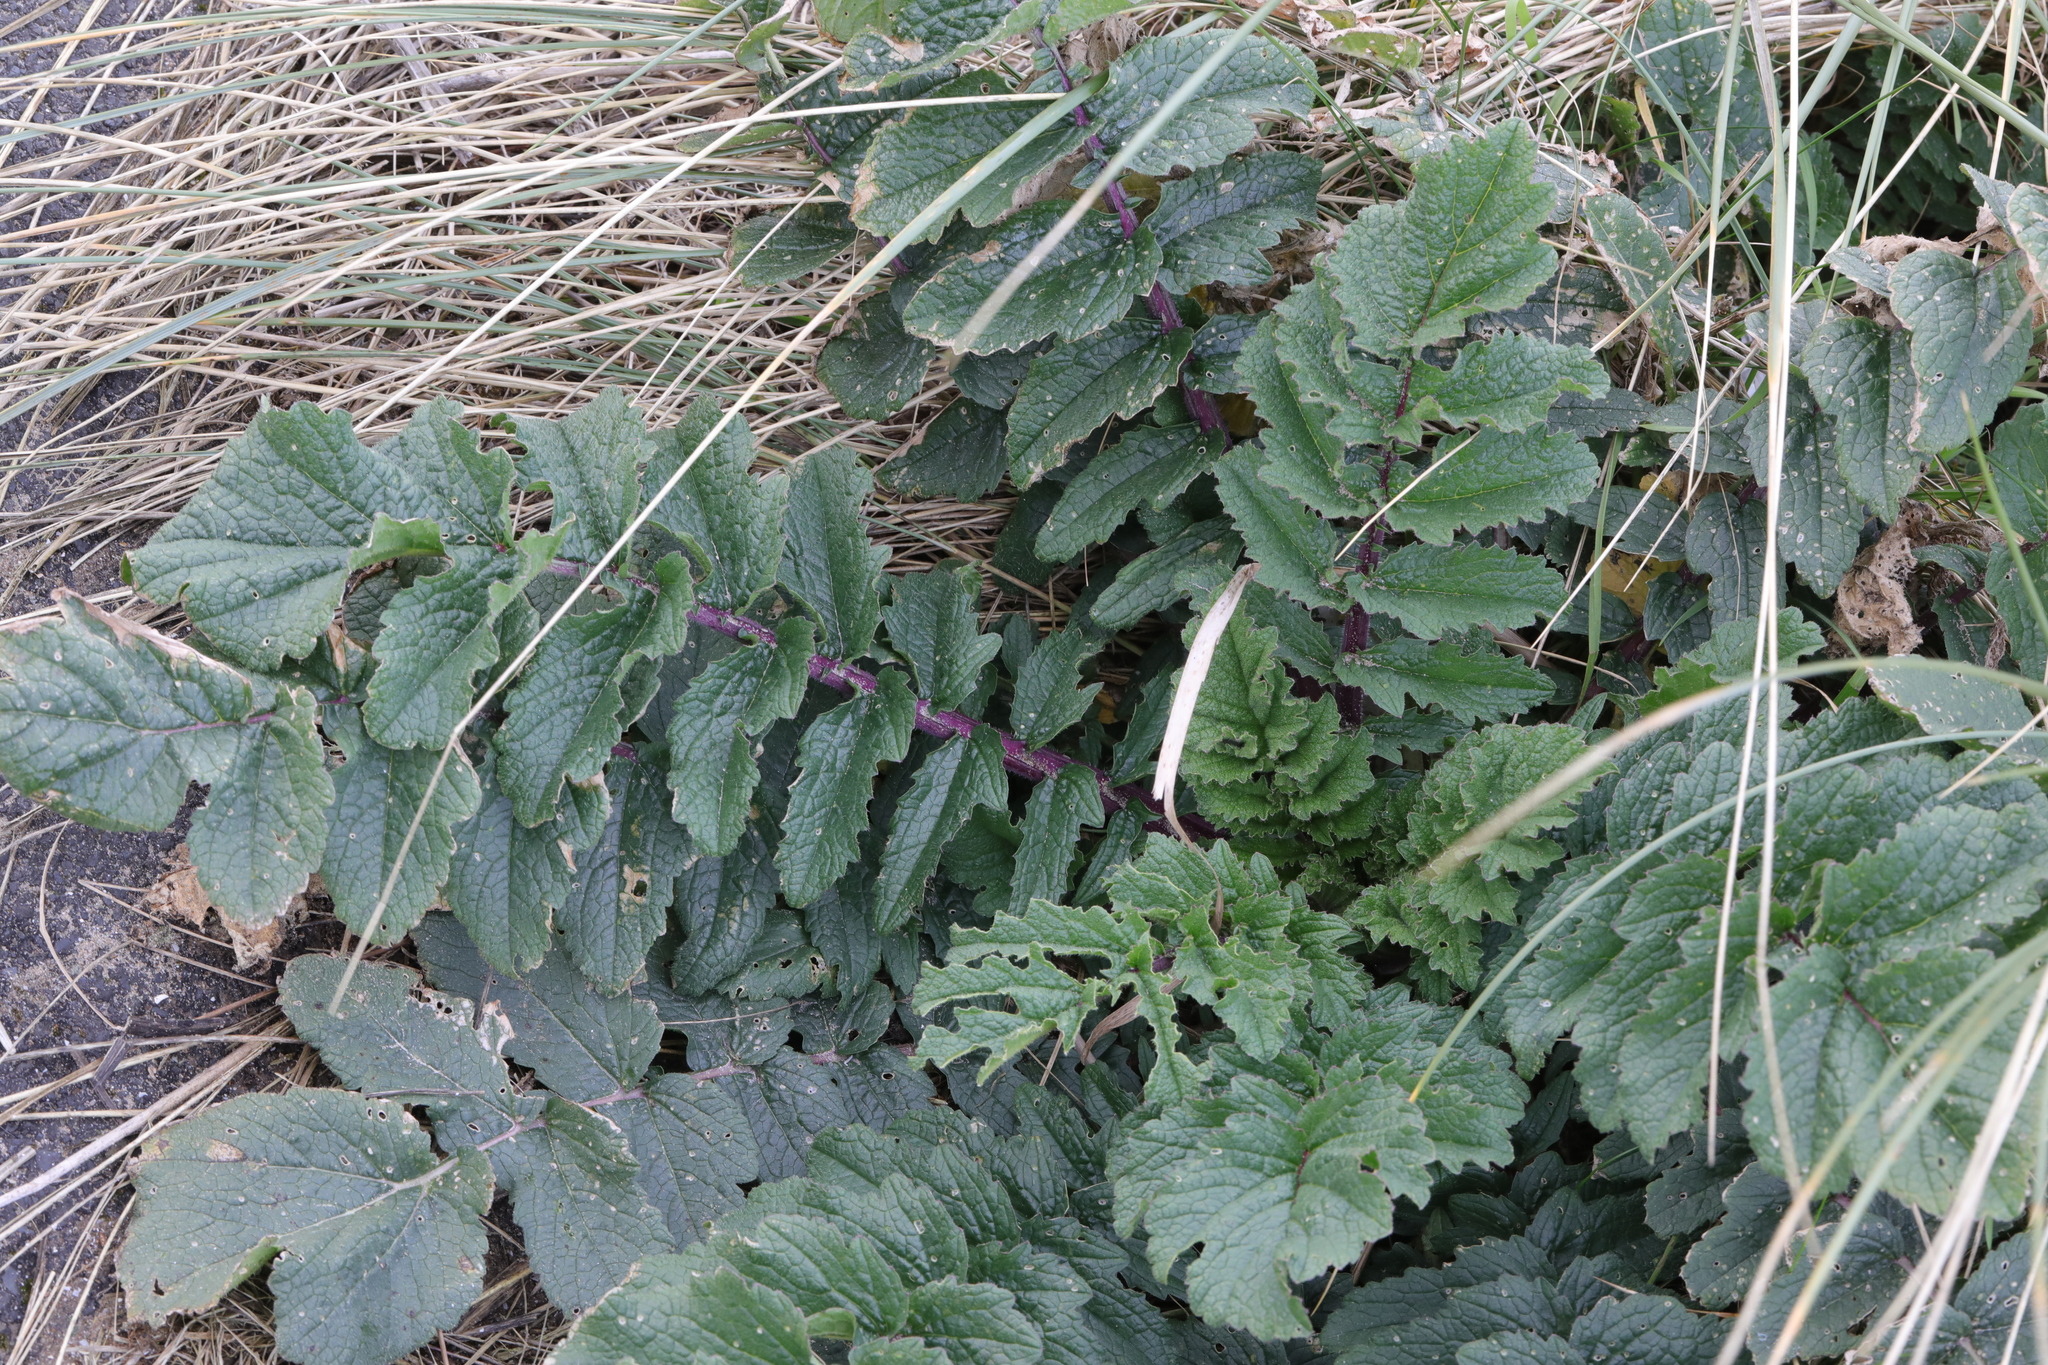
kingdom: Plantae
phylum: Tracheophyta
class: Magnoliopsida
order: Brassicales
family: Brassicaceae
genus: Raphanus
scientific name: Raphanus raphanistrum
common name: Wild radish
